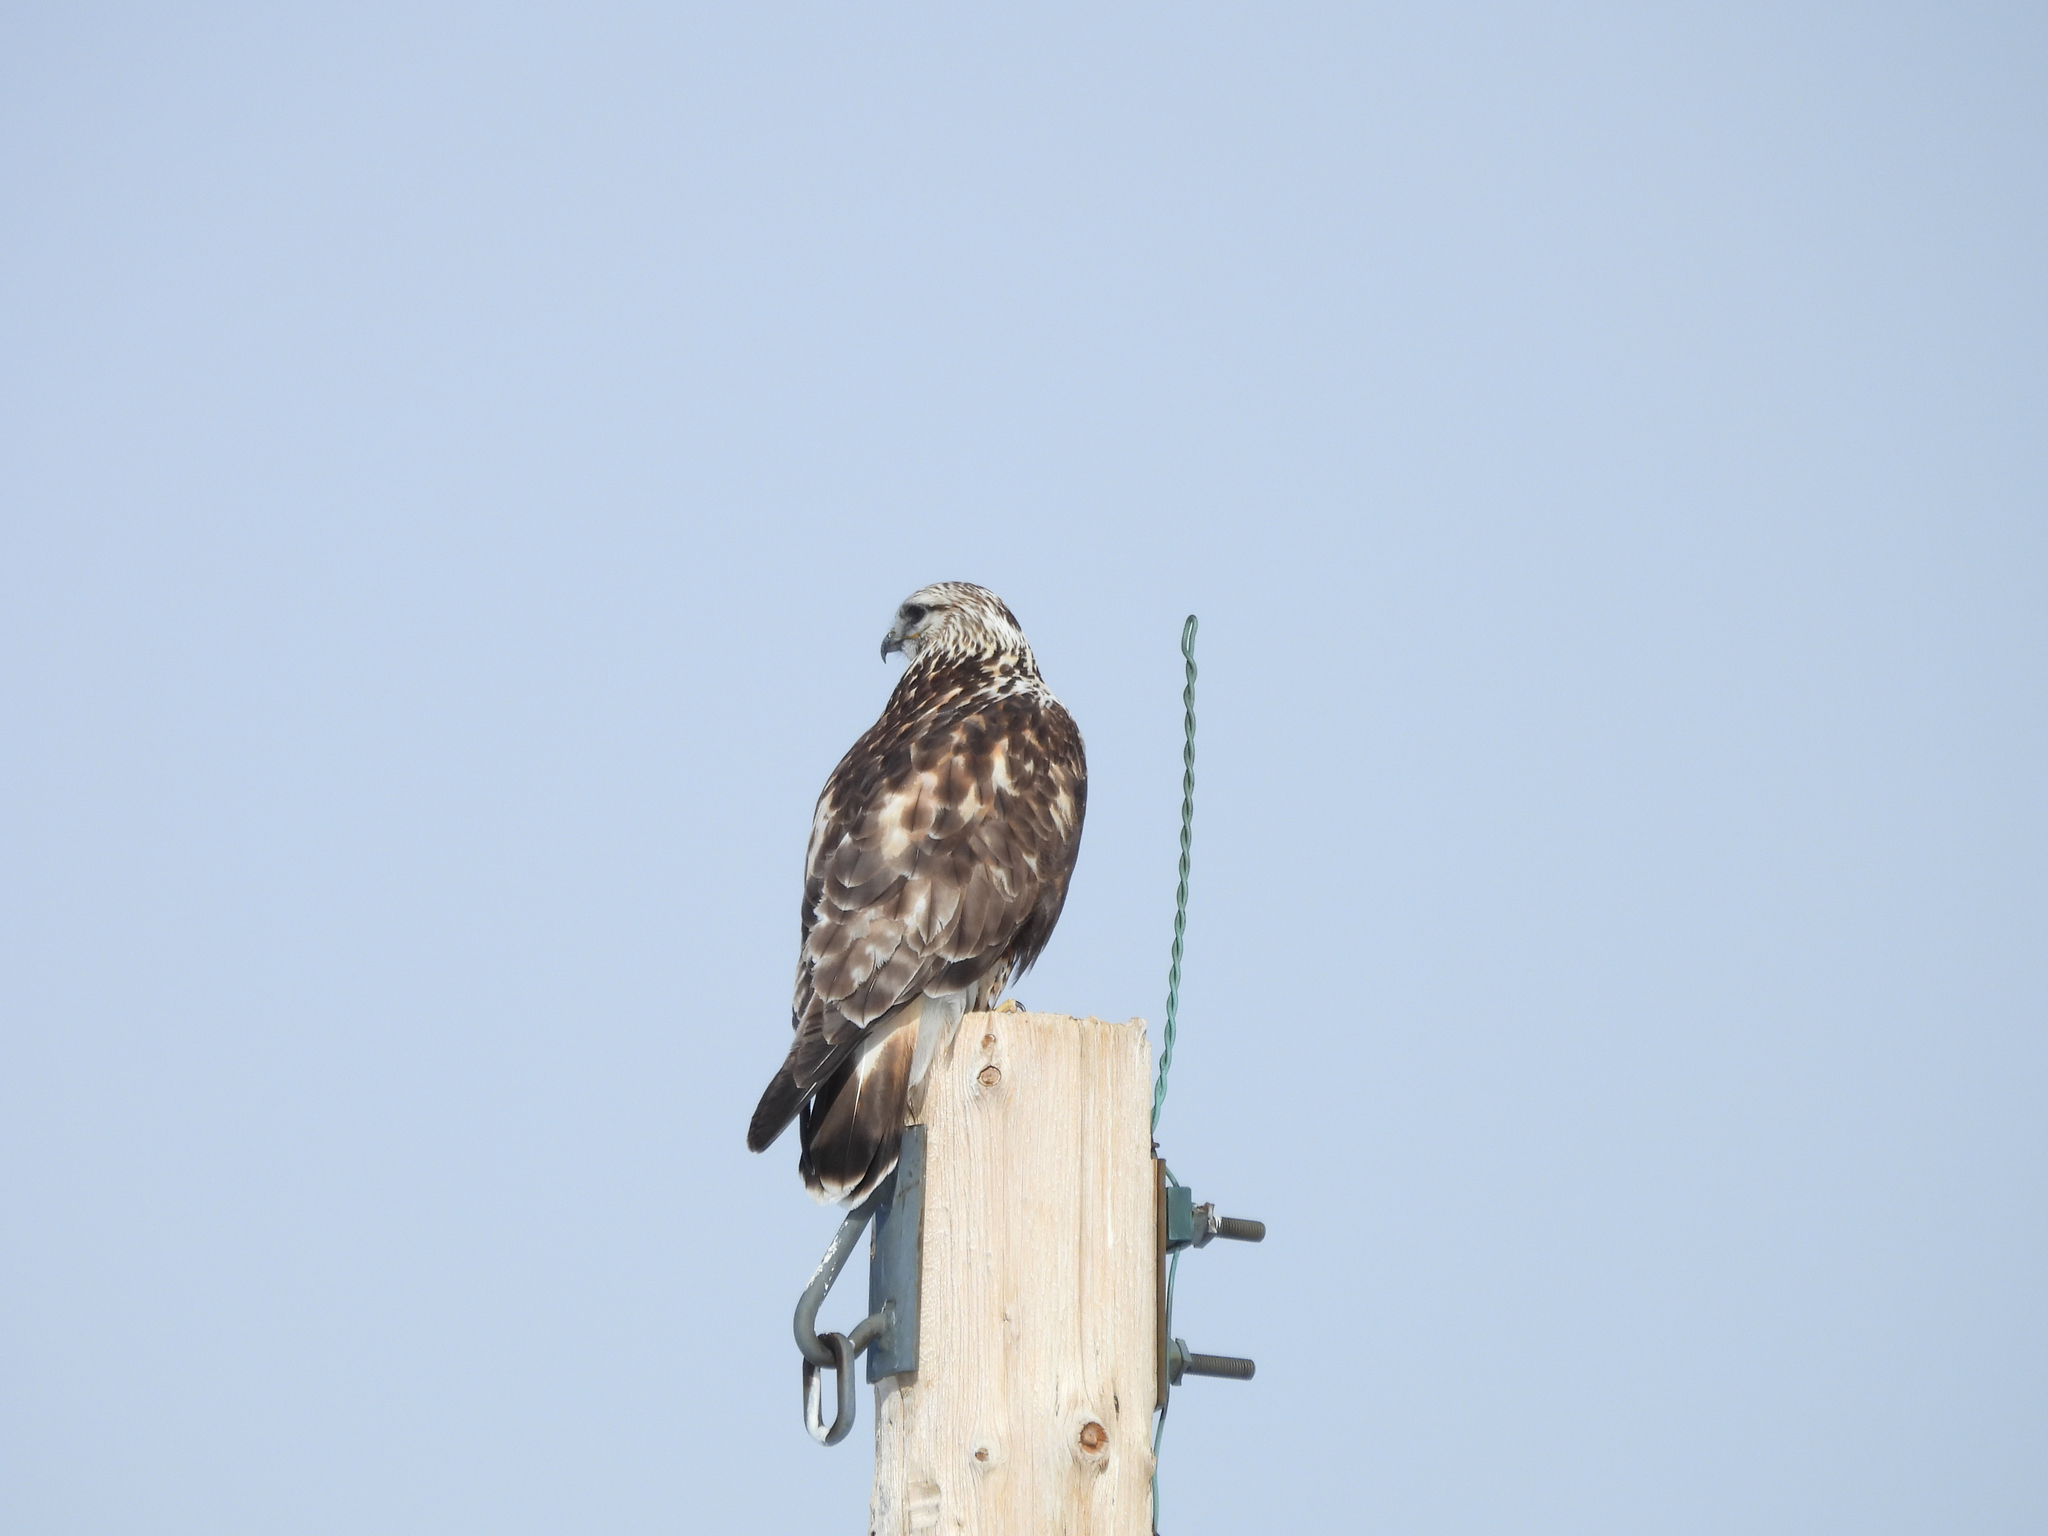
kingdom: Animalia
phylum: Chordata
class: Aves
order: Accipitriformes
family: Accipitridae
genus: Buteo
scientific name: Buteo lagopus
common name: Rough-legged buzzard
